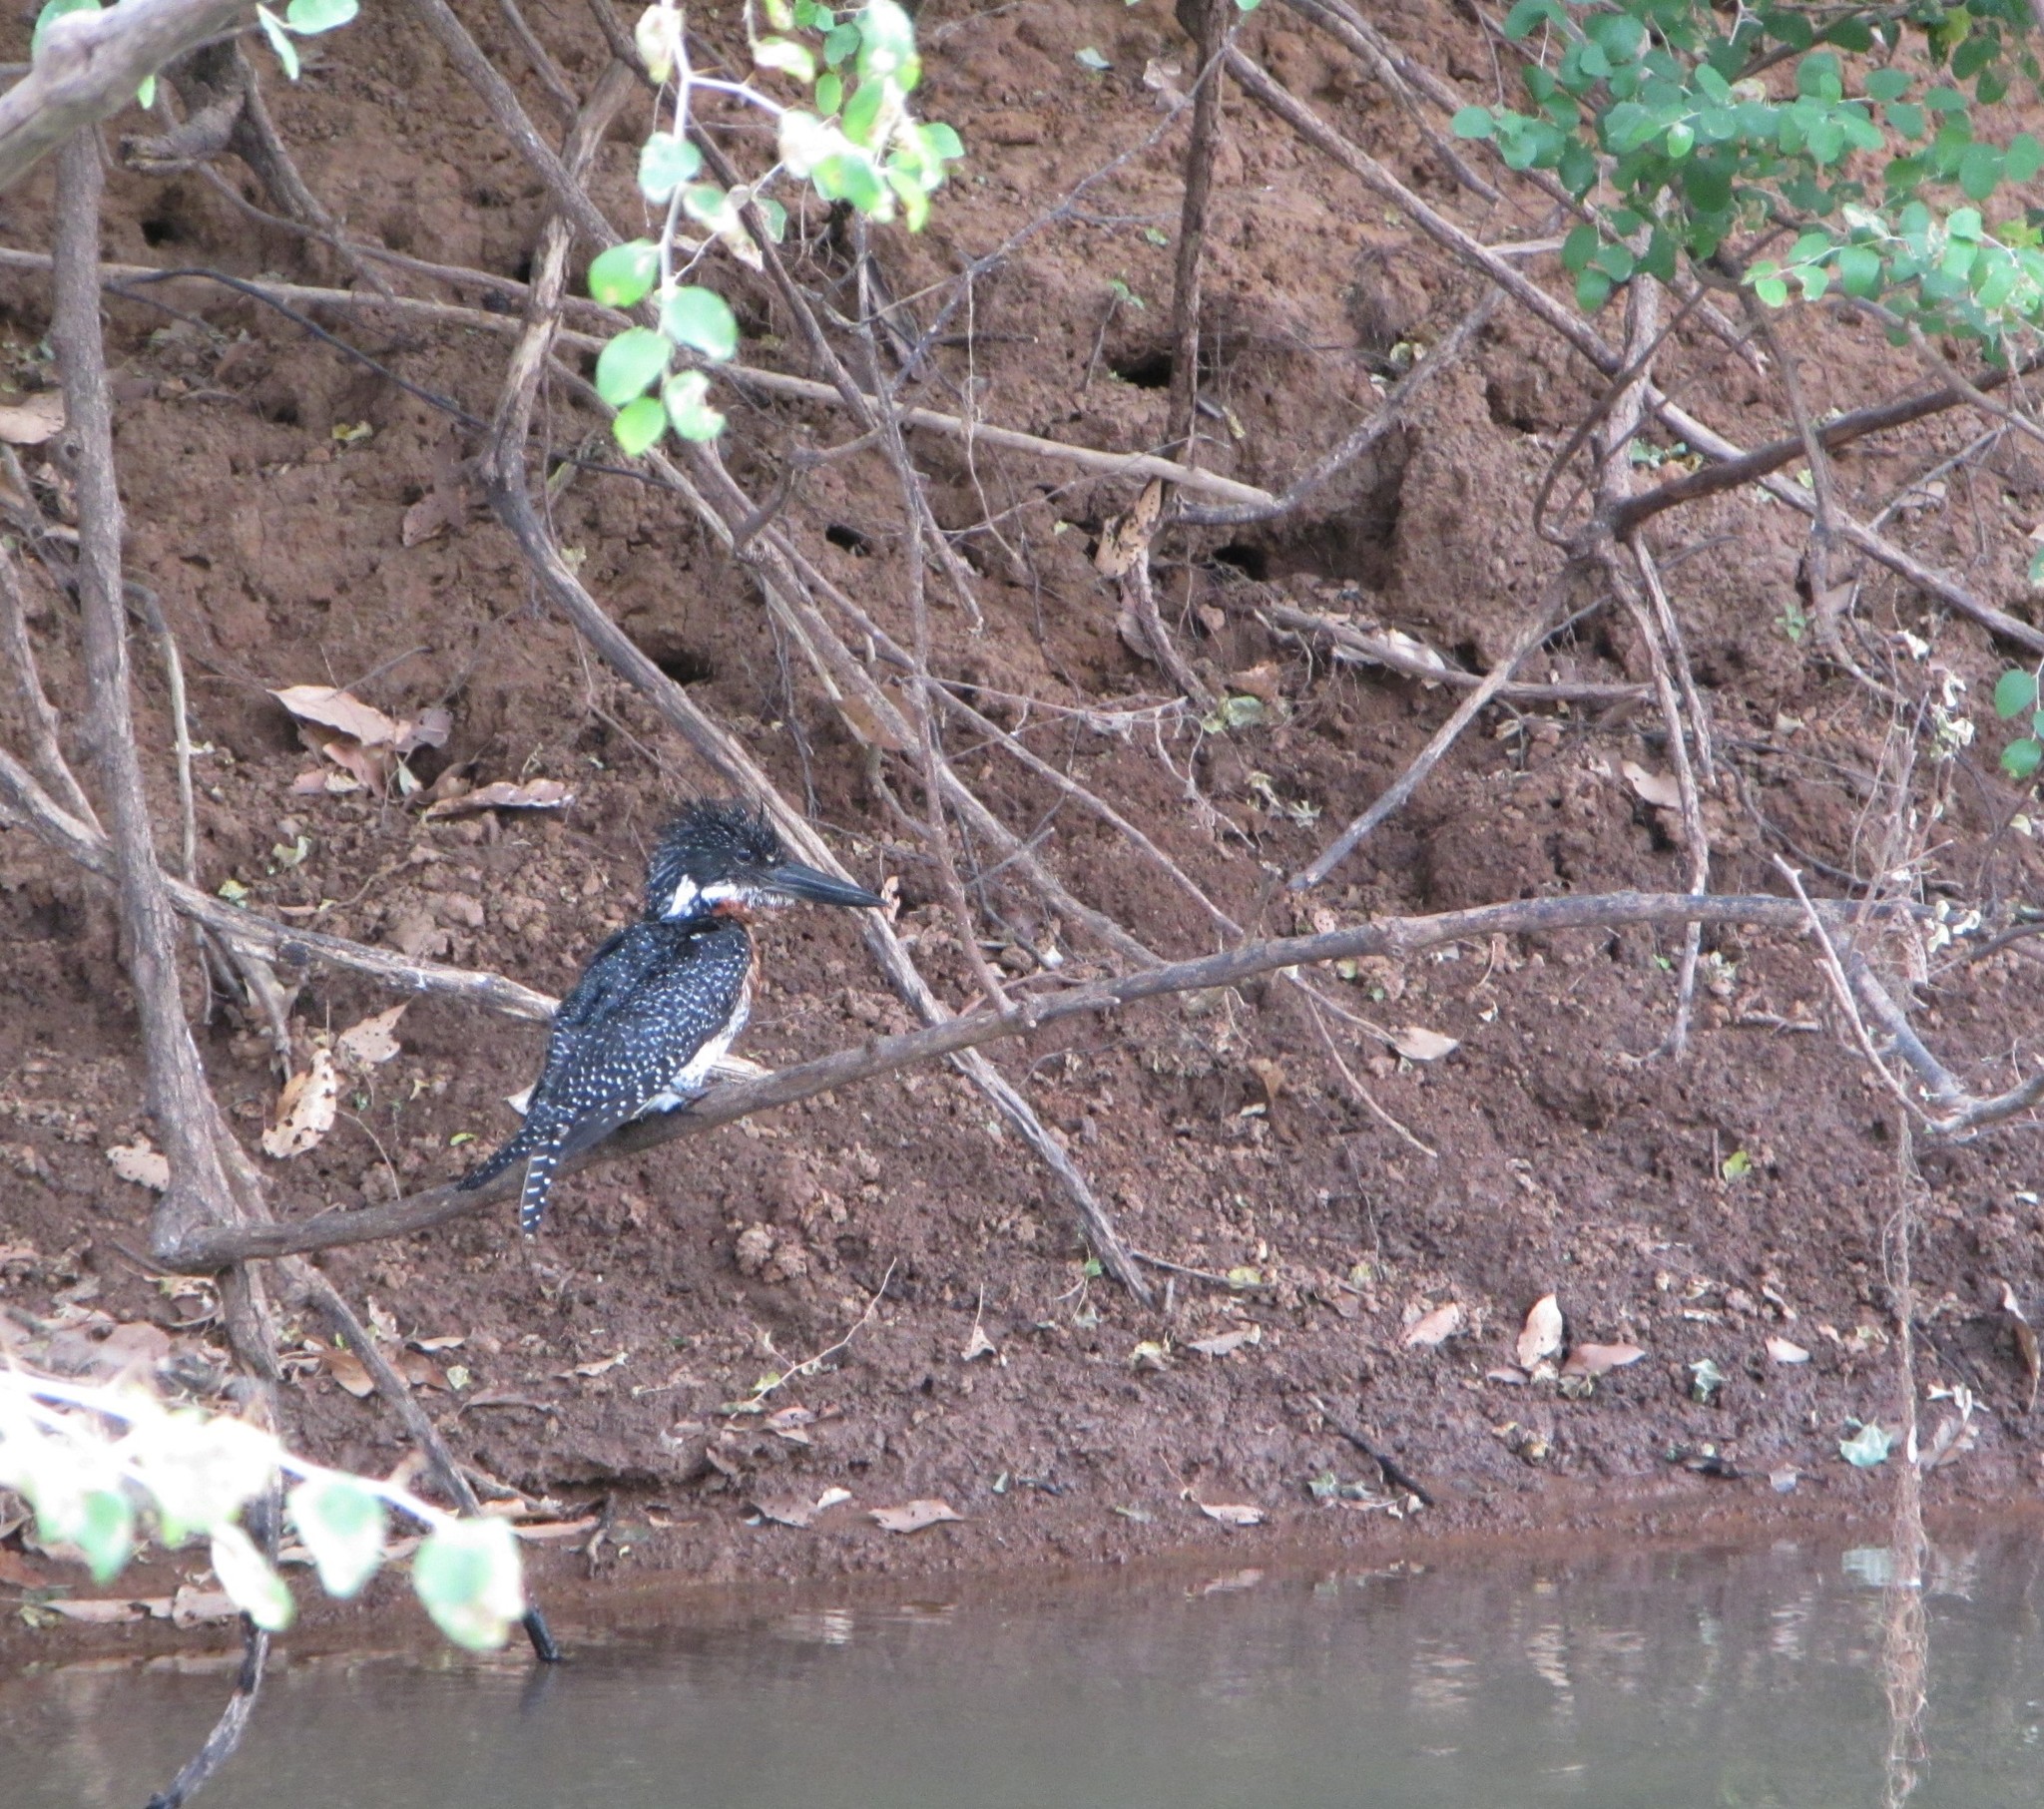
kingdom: Animalia
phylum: Chordata
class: Aves
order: Coraciiformes
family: Alcedinidae
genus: Megaceryle
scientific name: Megaceryle maxima
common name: Giant kingfisher
